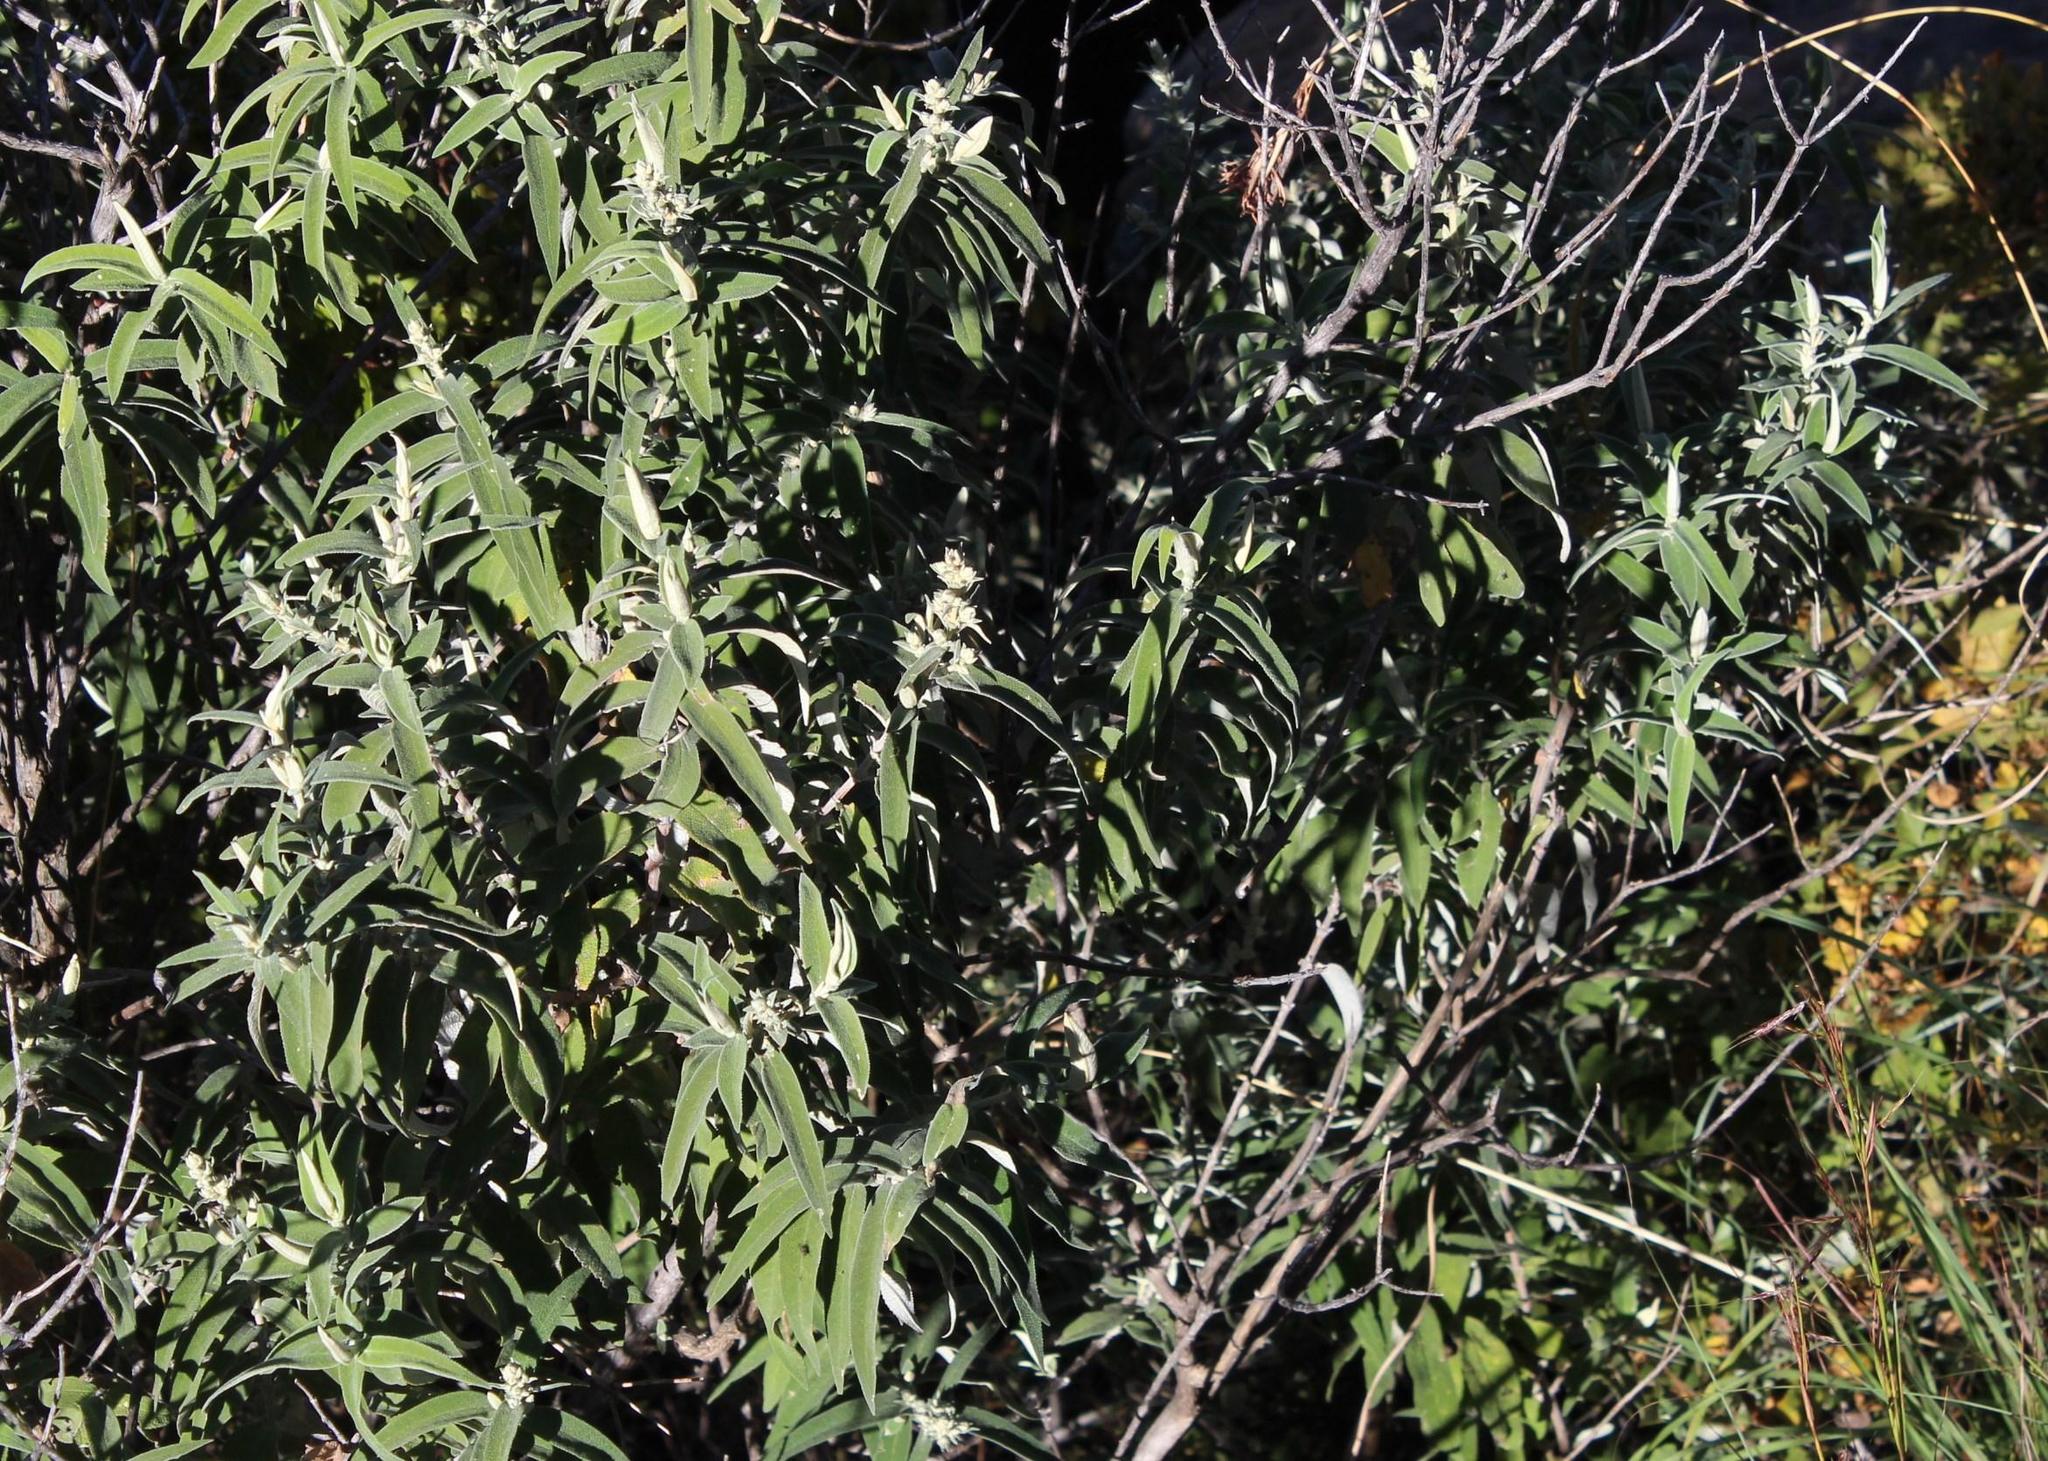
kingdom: Plantae
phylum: Tracheophyta
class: Magnoliopsida
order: Lamiales
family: Scrophulariaceae
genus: Buddleja
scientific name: Buddleja salviifolia
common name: Sagewood
